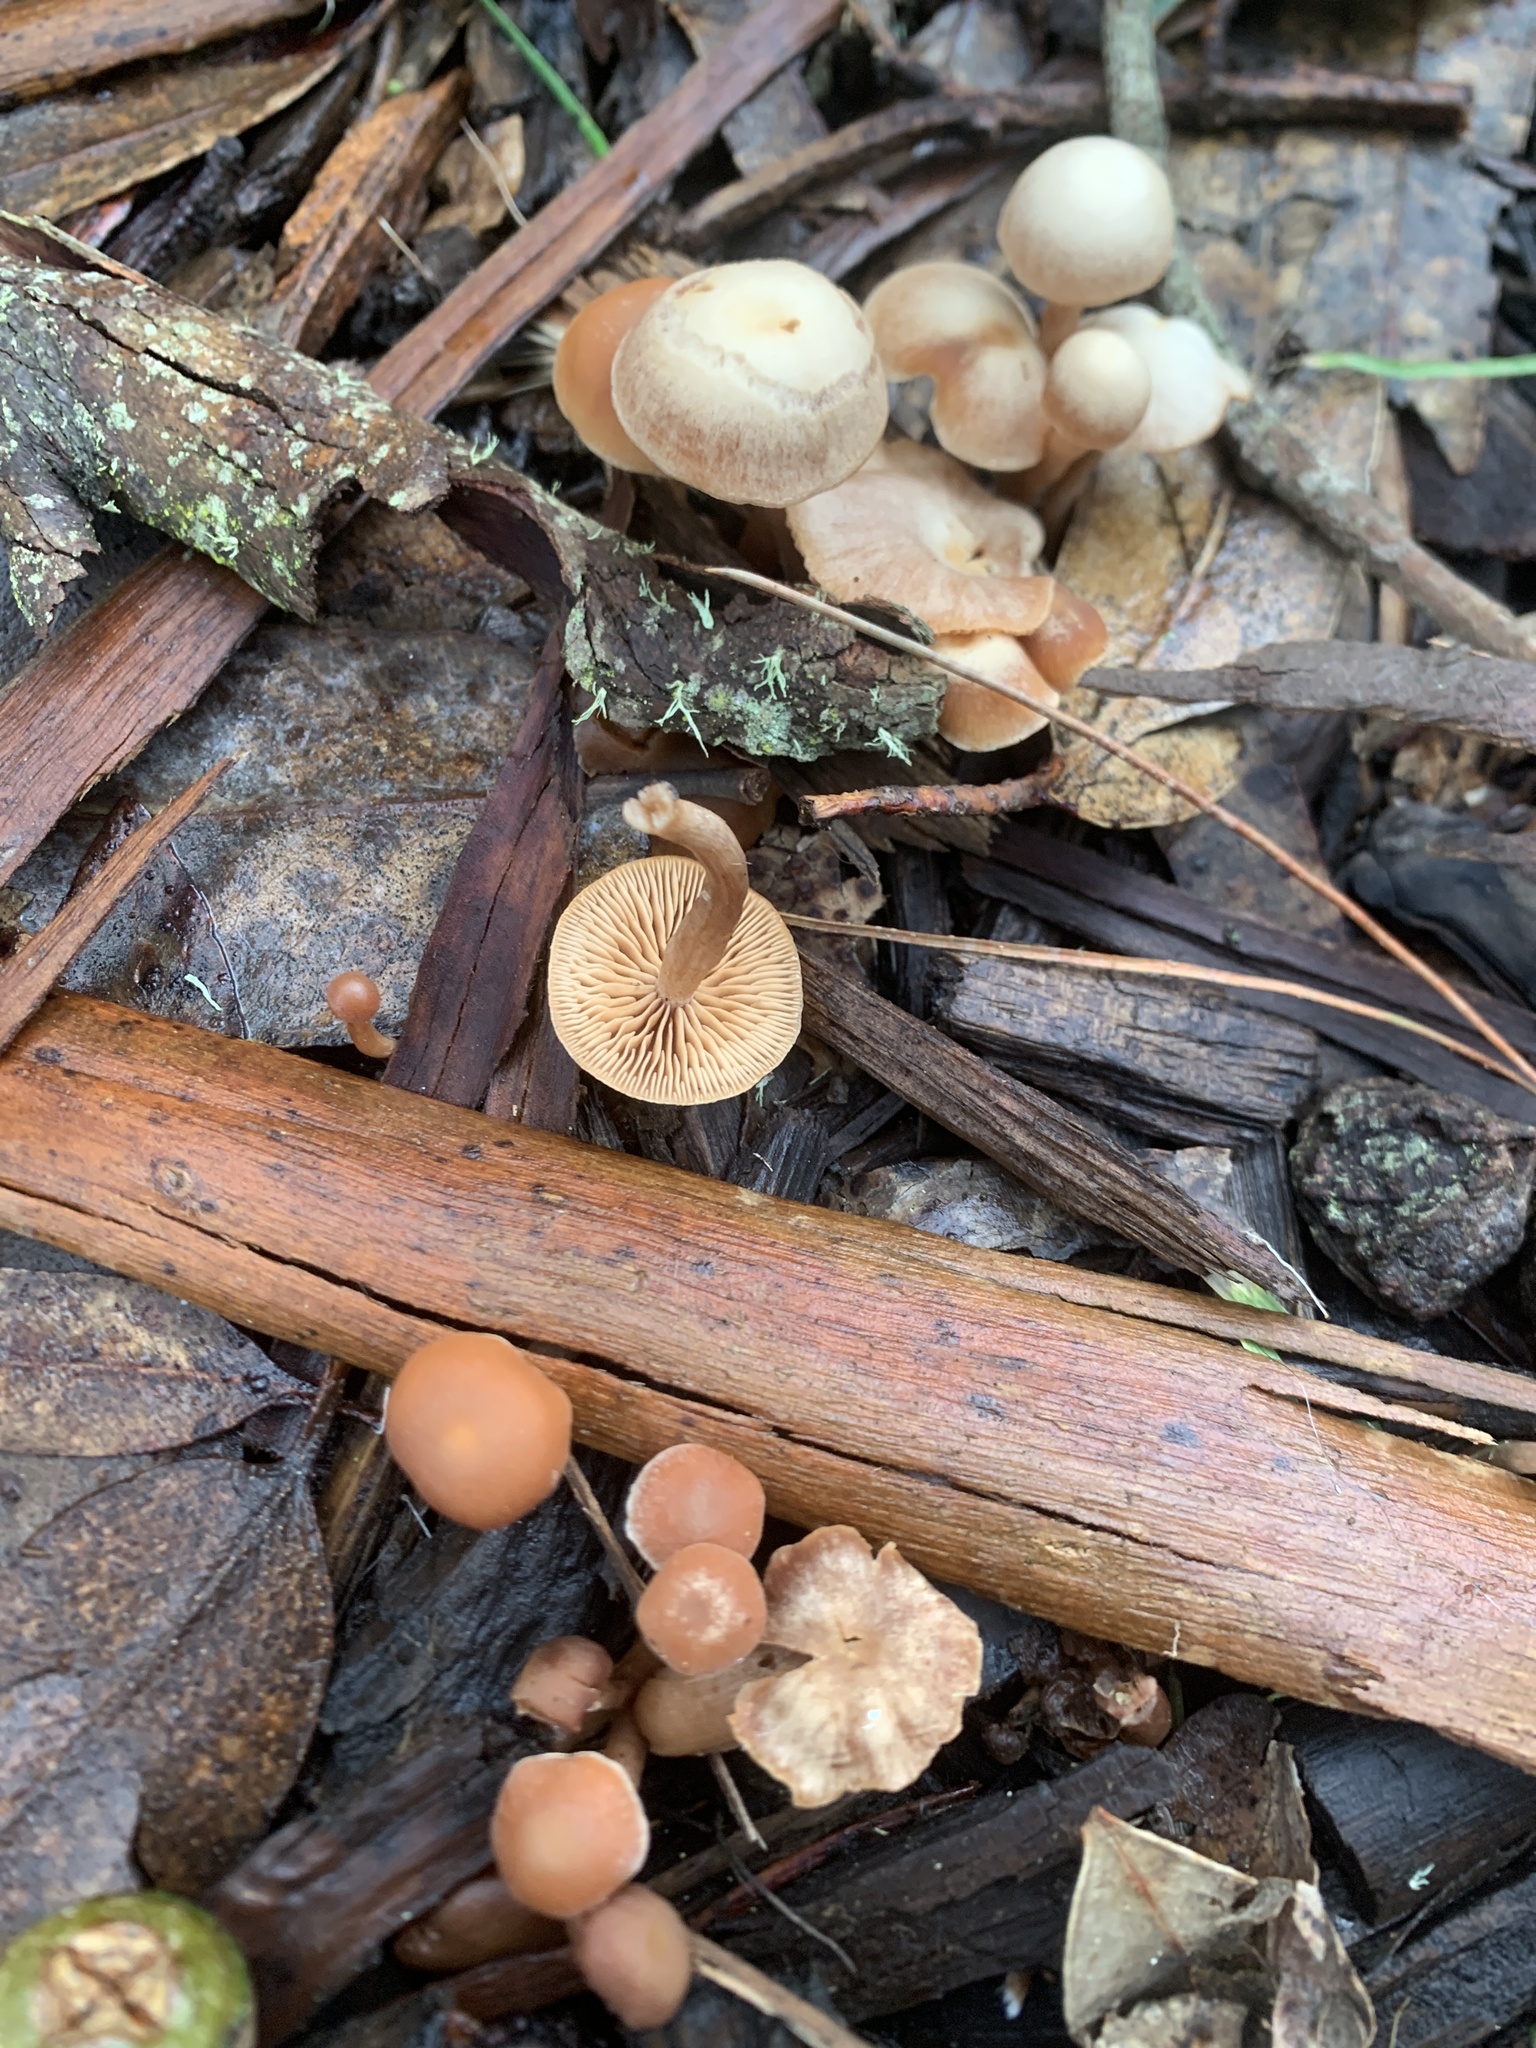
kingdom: Fungi
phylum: Basidiomycota
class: Agaricomycetes
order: Agaricales
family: Tubariaceae
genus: Tubaria
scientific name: Tubaria furfuracea
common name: Scurfy twiglet
